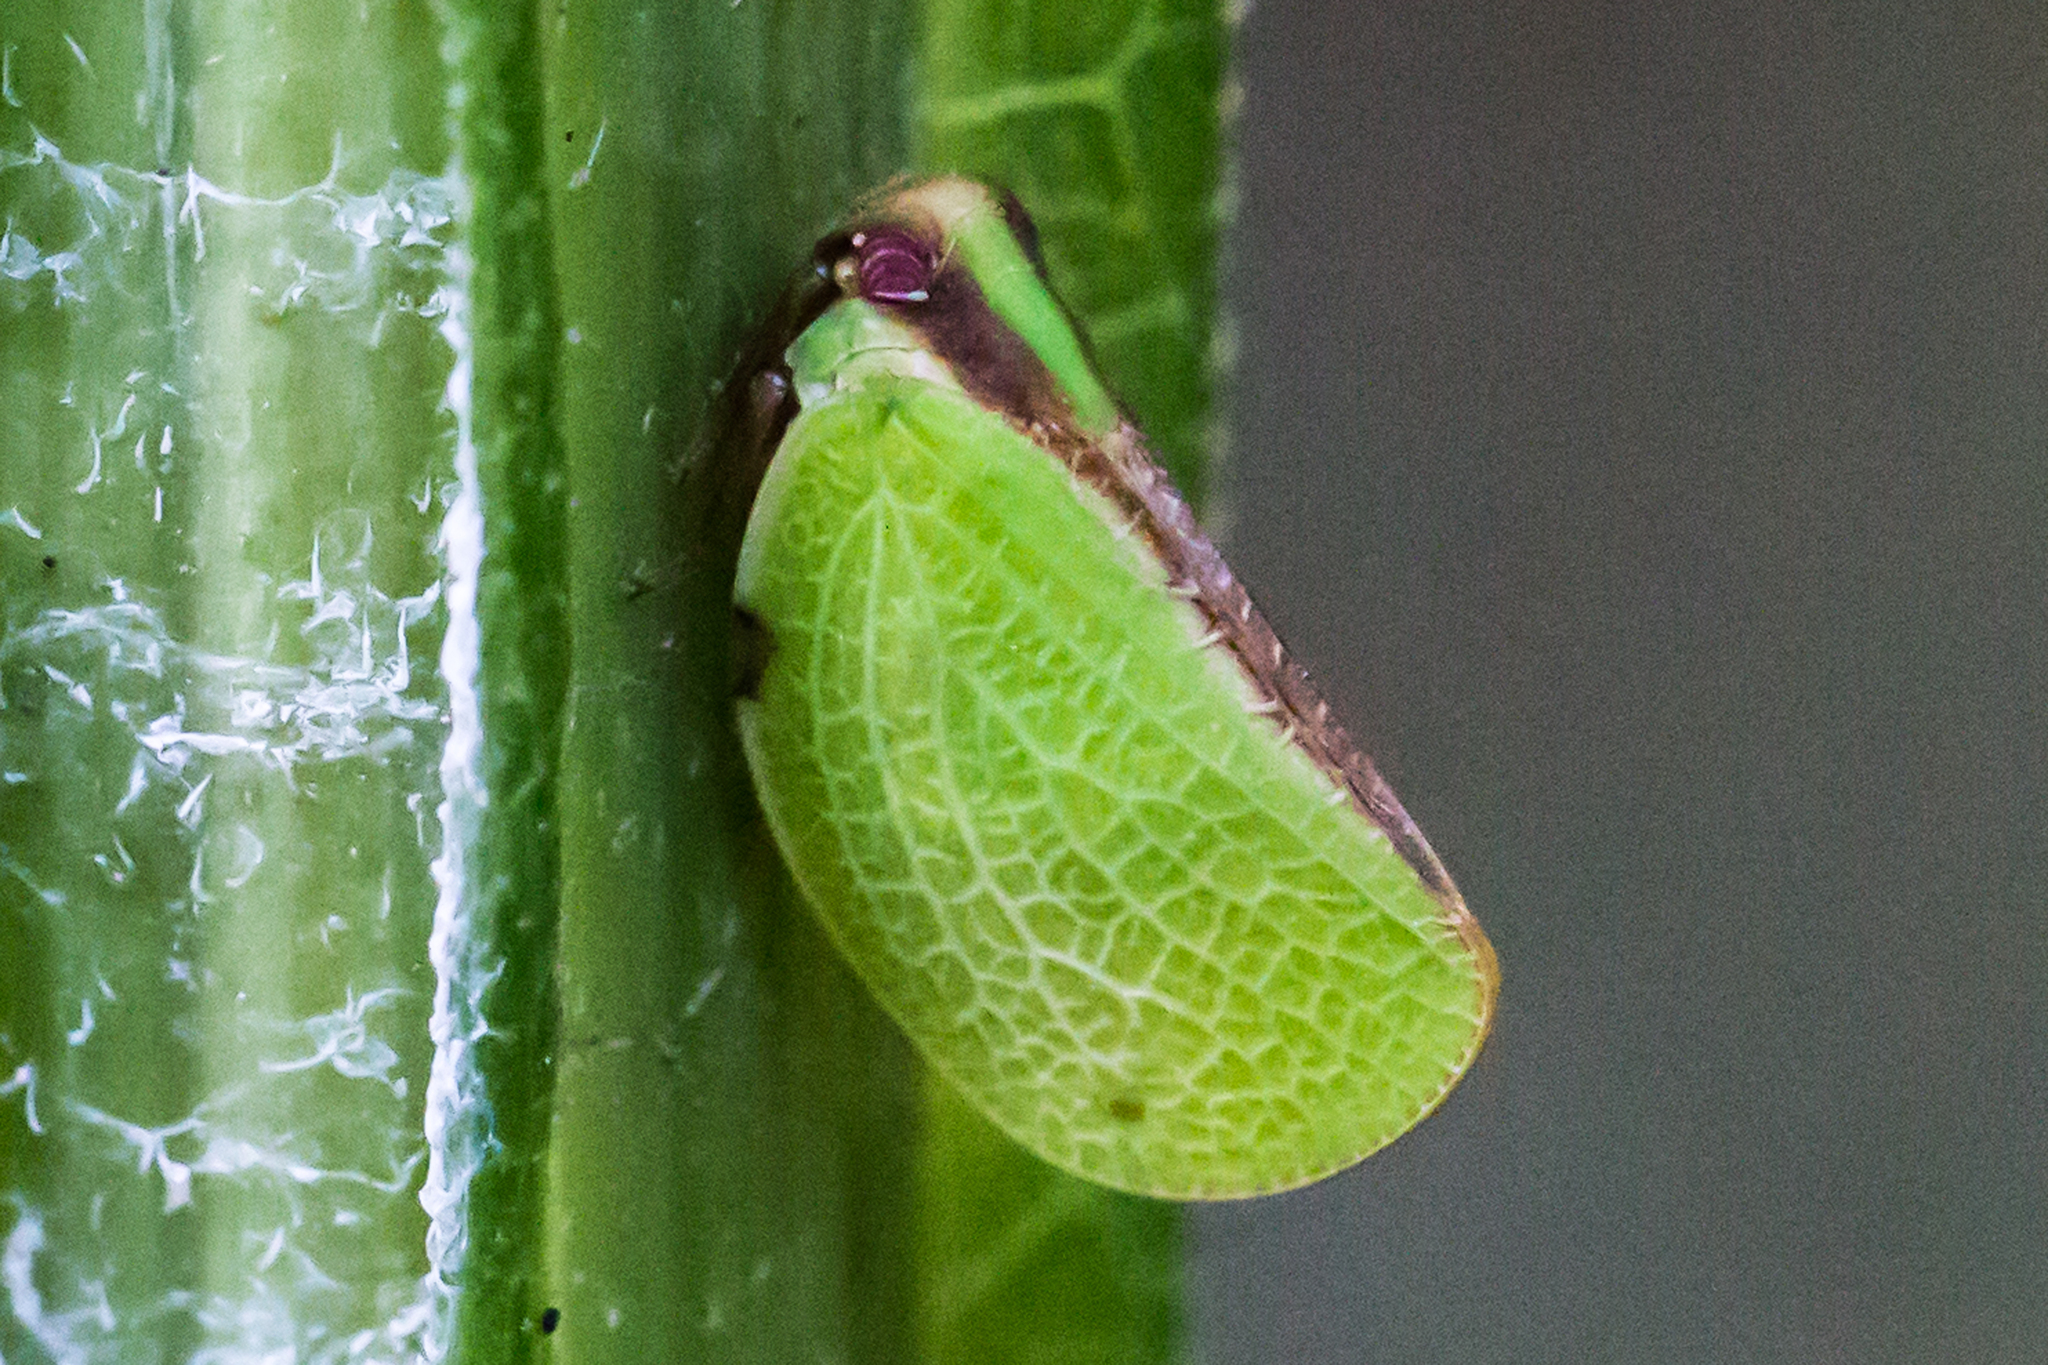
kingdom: Animalia
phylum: Arthropoda
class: Insecta
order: Hemiptera
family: Acanaloniidae
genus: Acanalonia
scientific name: Acanalonia bivittata
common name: Two-striped planthopper
